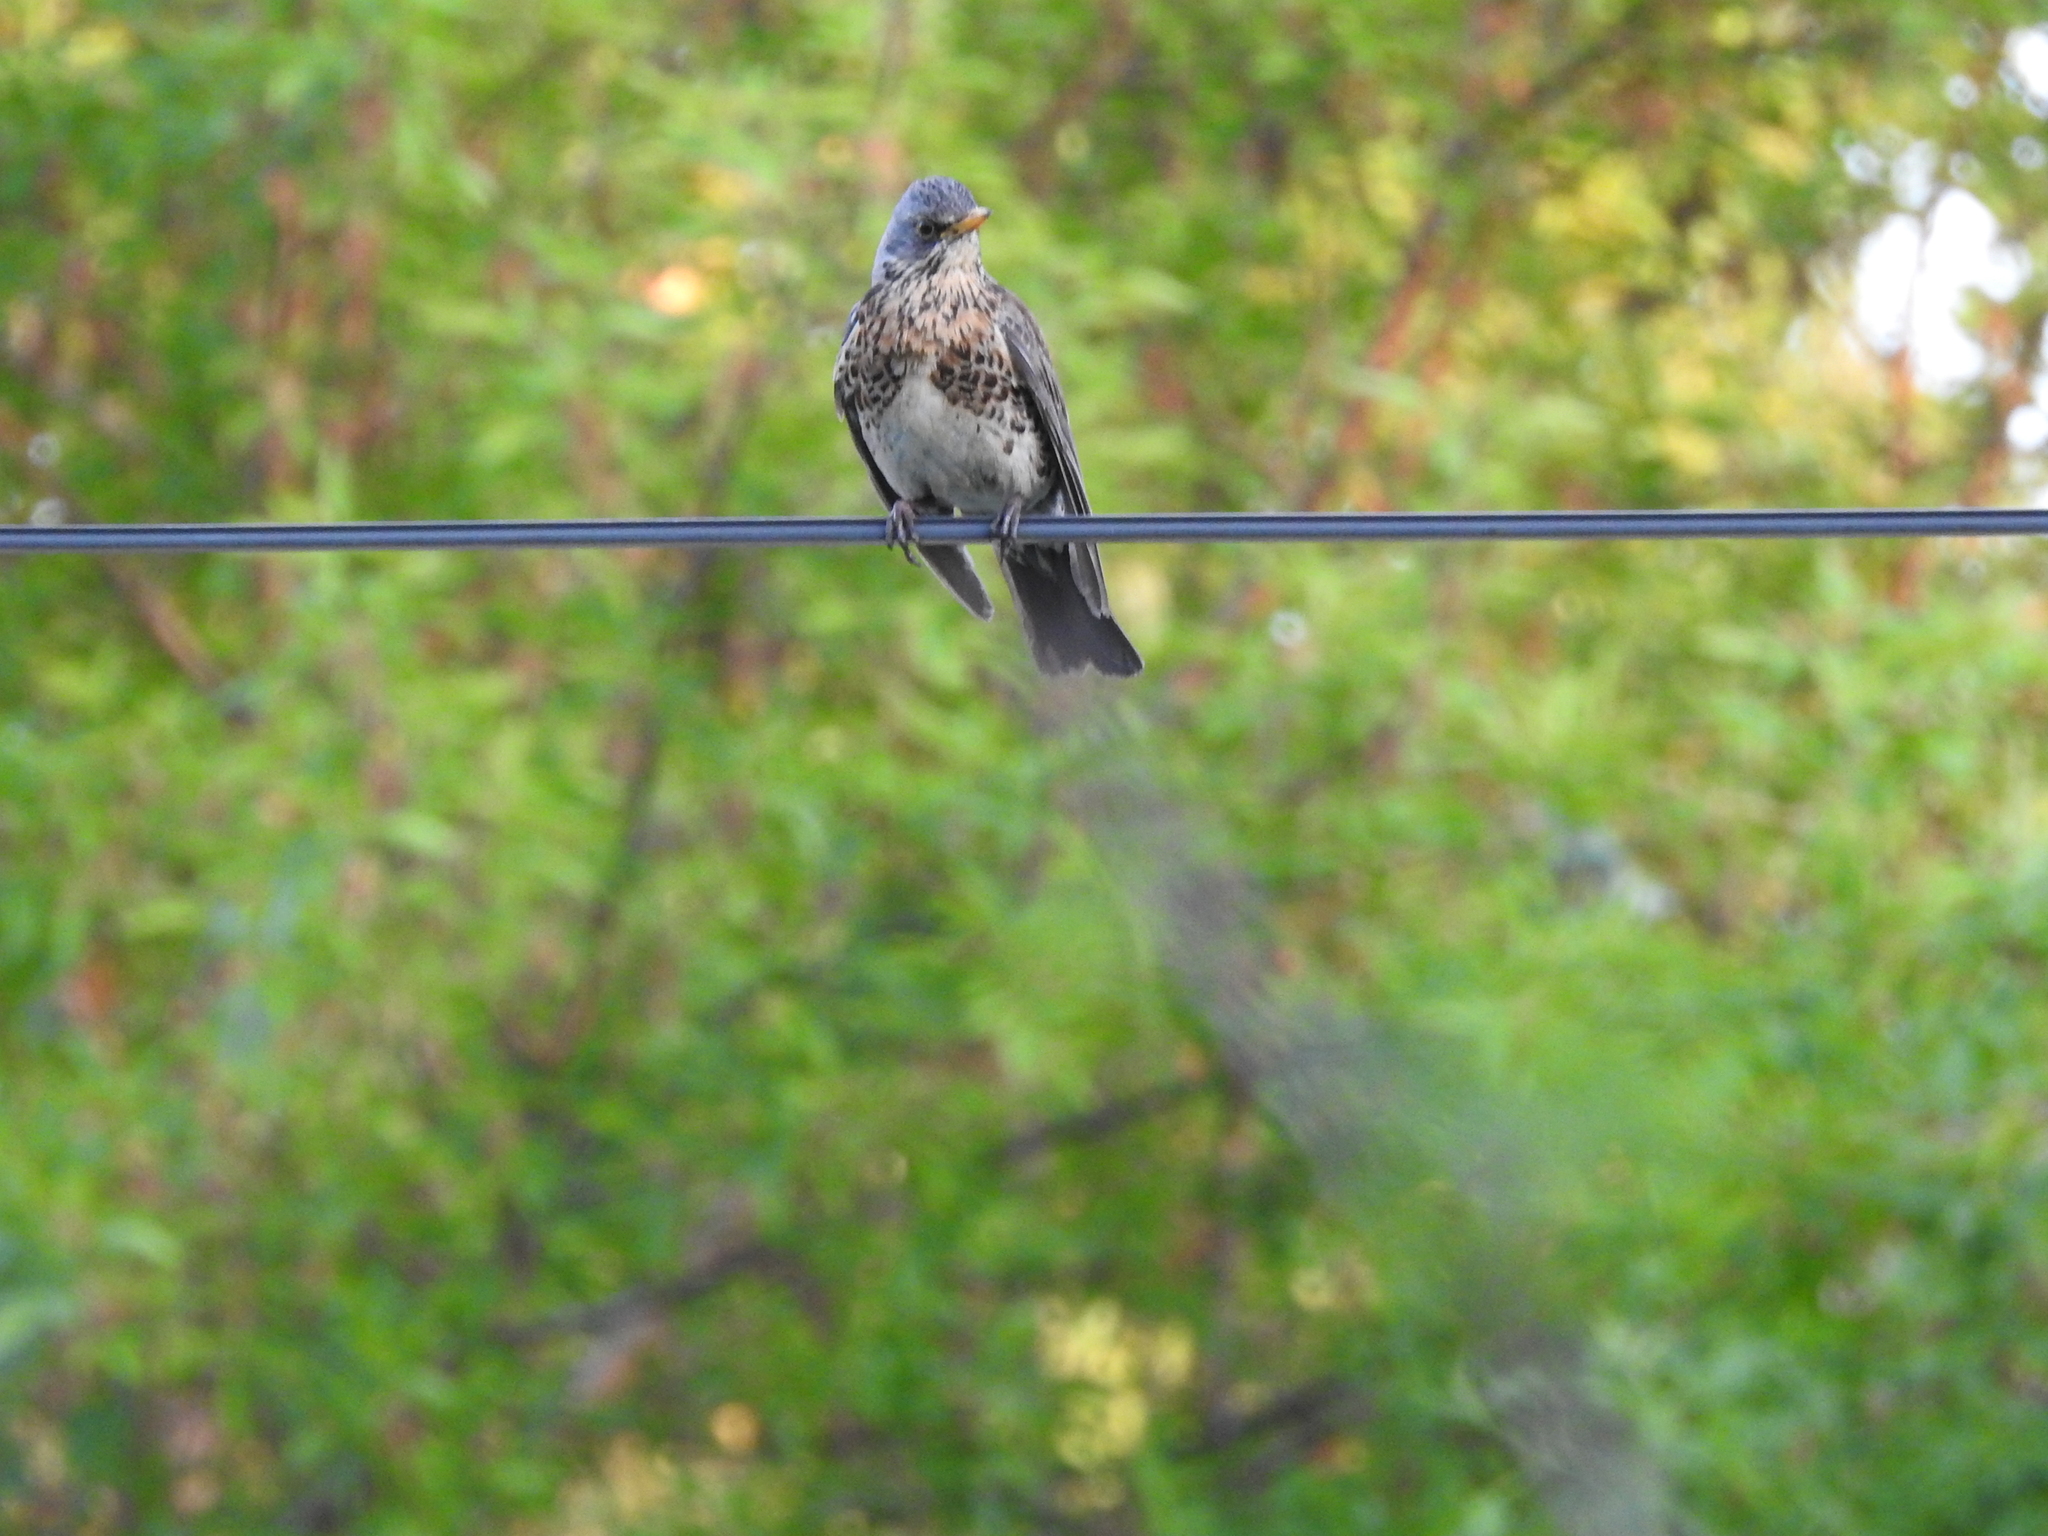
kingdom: Animalia
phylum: Chordata
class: Aves
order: Passeriformes
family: Turdidae
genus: Turdus
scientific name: Turdus pilaris
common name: Fieldfare
